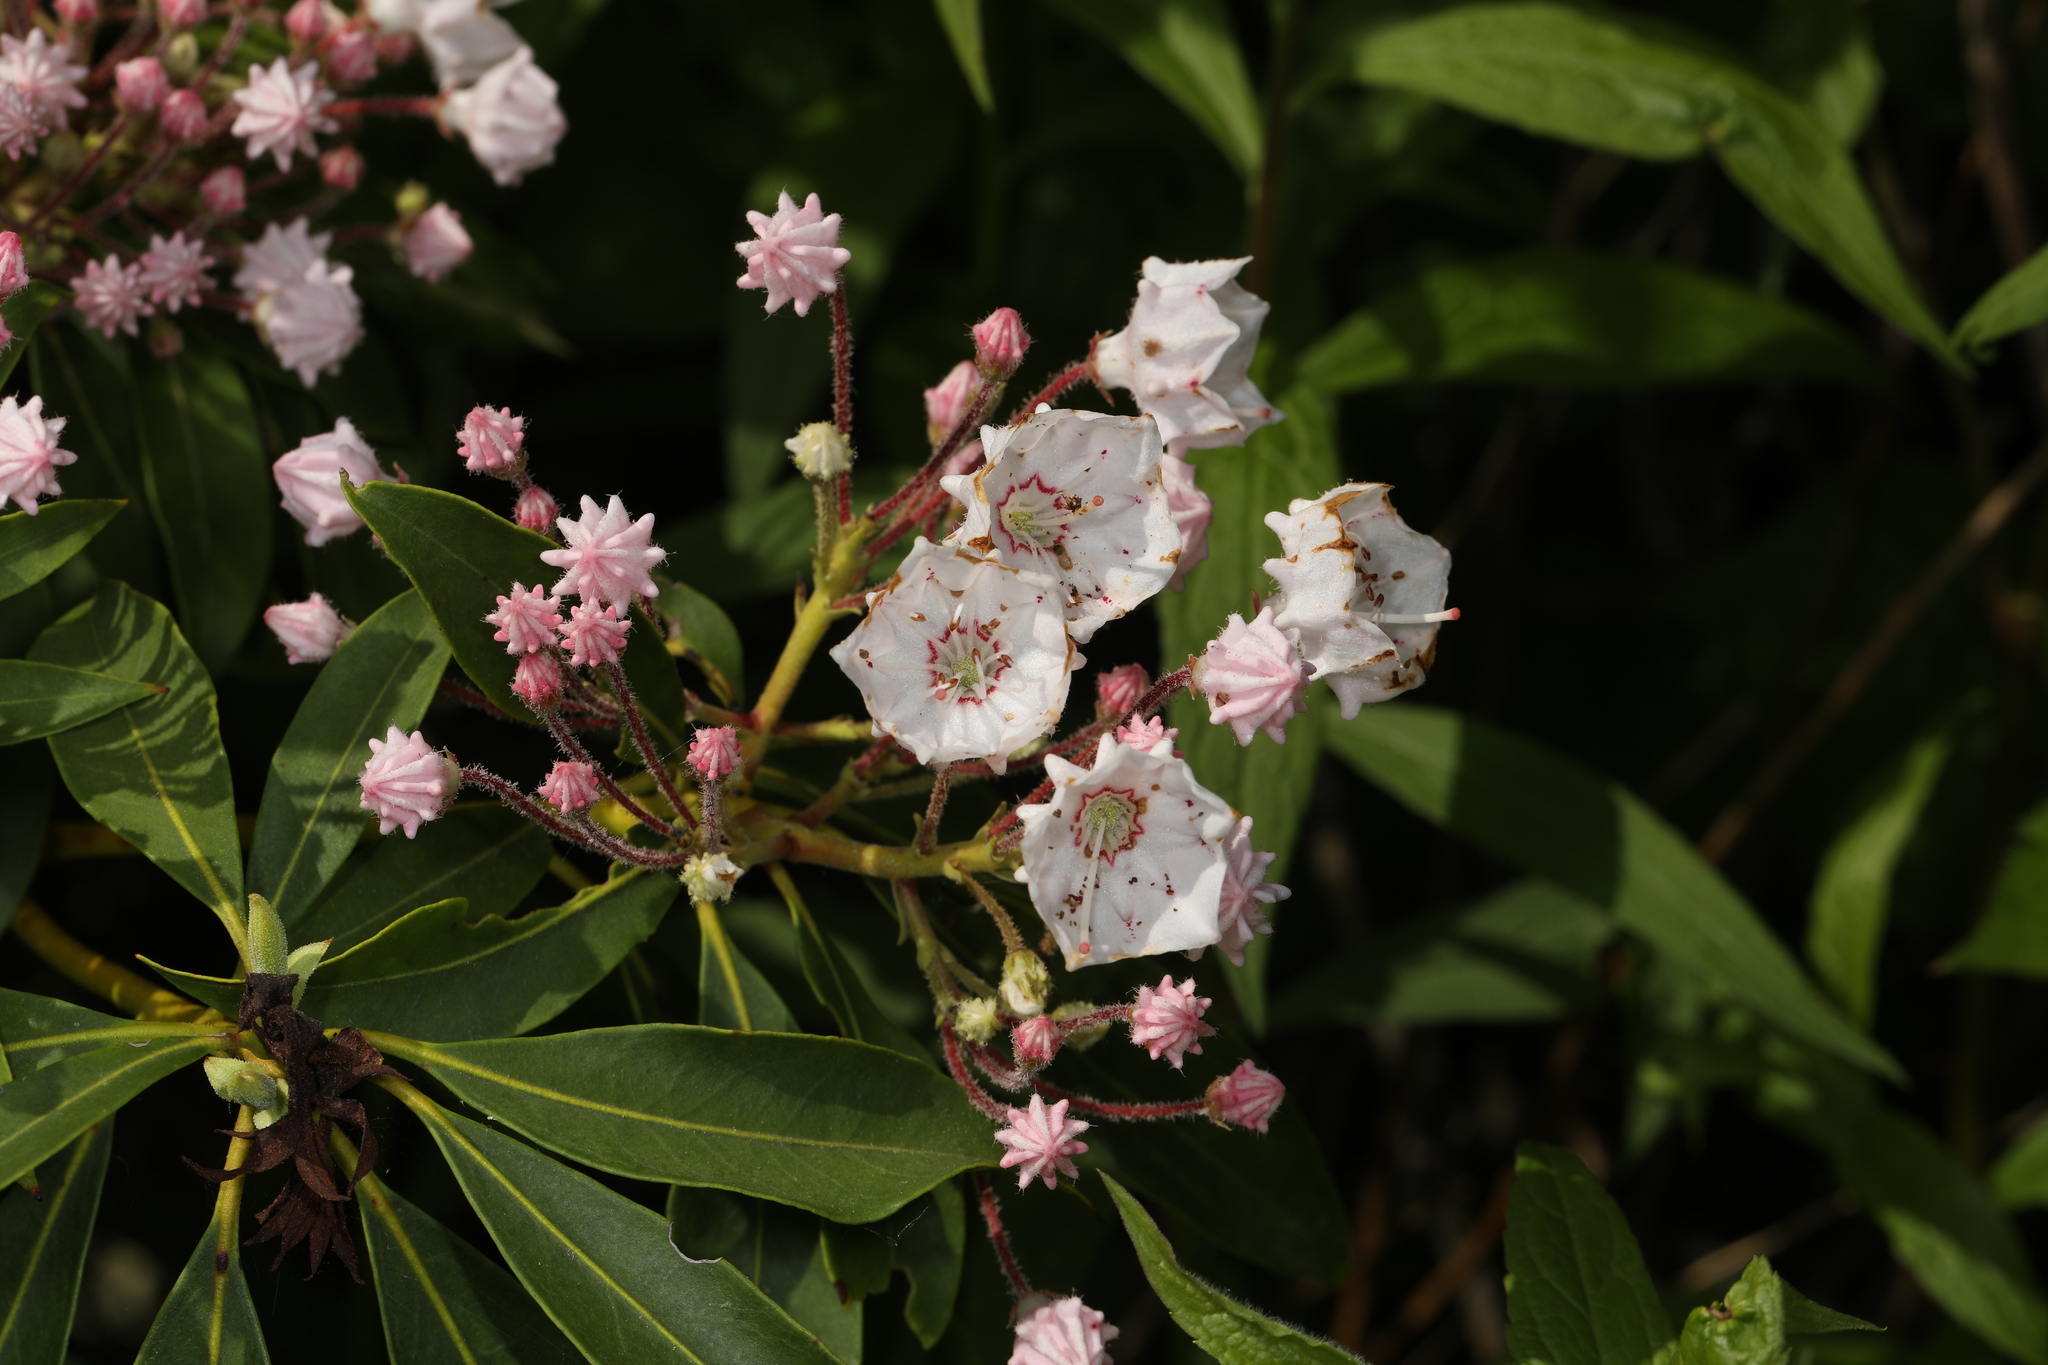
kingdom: Plantae
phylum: Tracheophyta
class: Magnoliopsida
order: Ericales
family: Ericaceae
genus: Kalmia
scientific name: Kalmia latifolia
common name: Mountain-laurel
